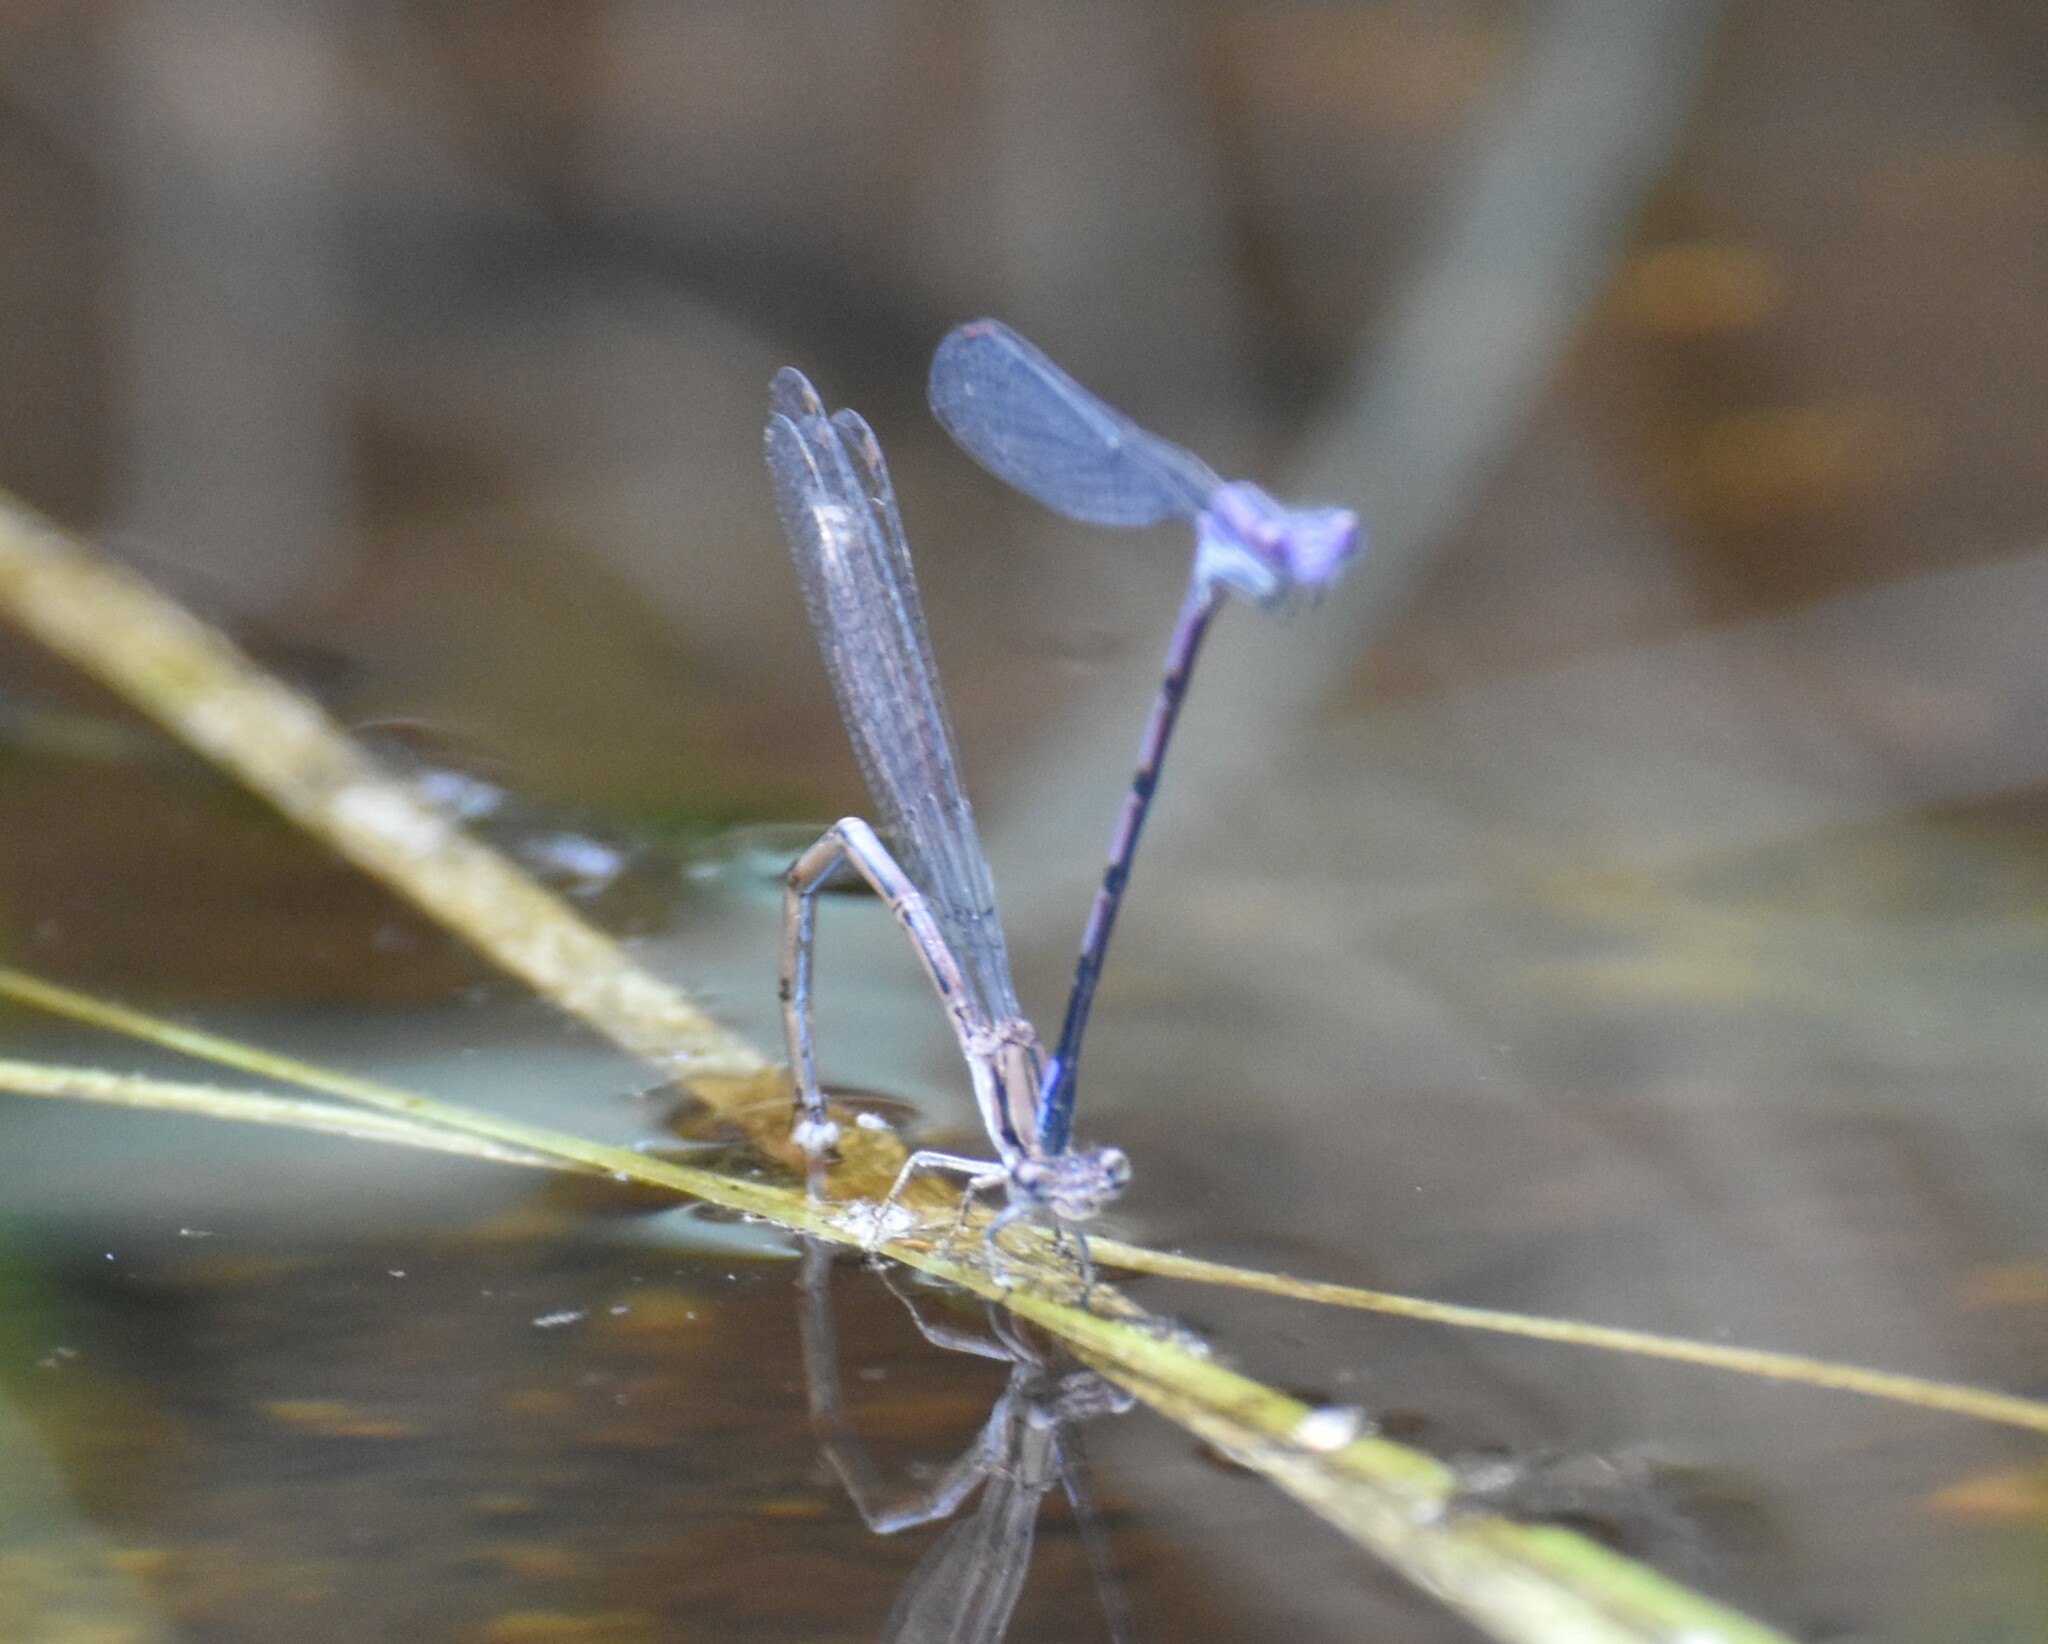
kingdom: Animalia
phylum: Arthropoda
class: Insecta
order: Odonata
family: Coenagrionidae
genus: Argia
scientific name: Argia fumipennis
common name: Variable dancer
